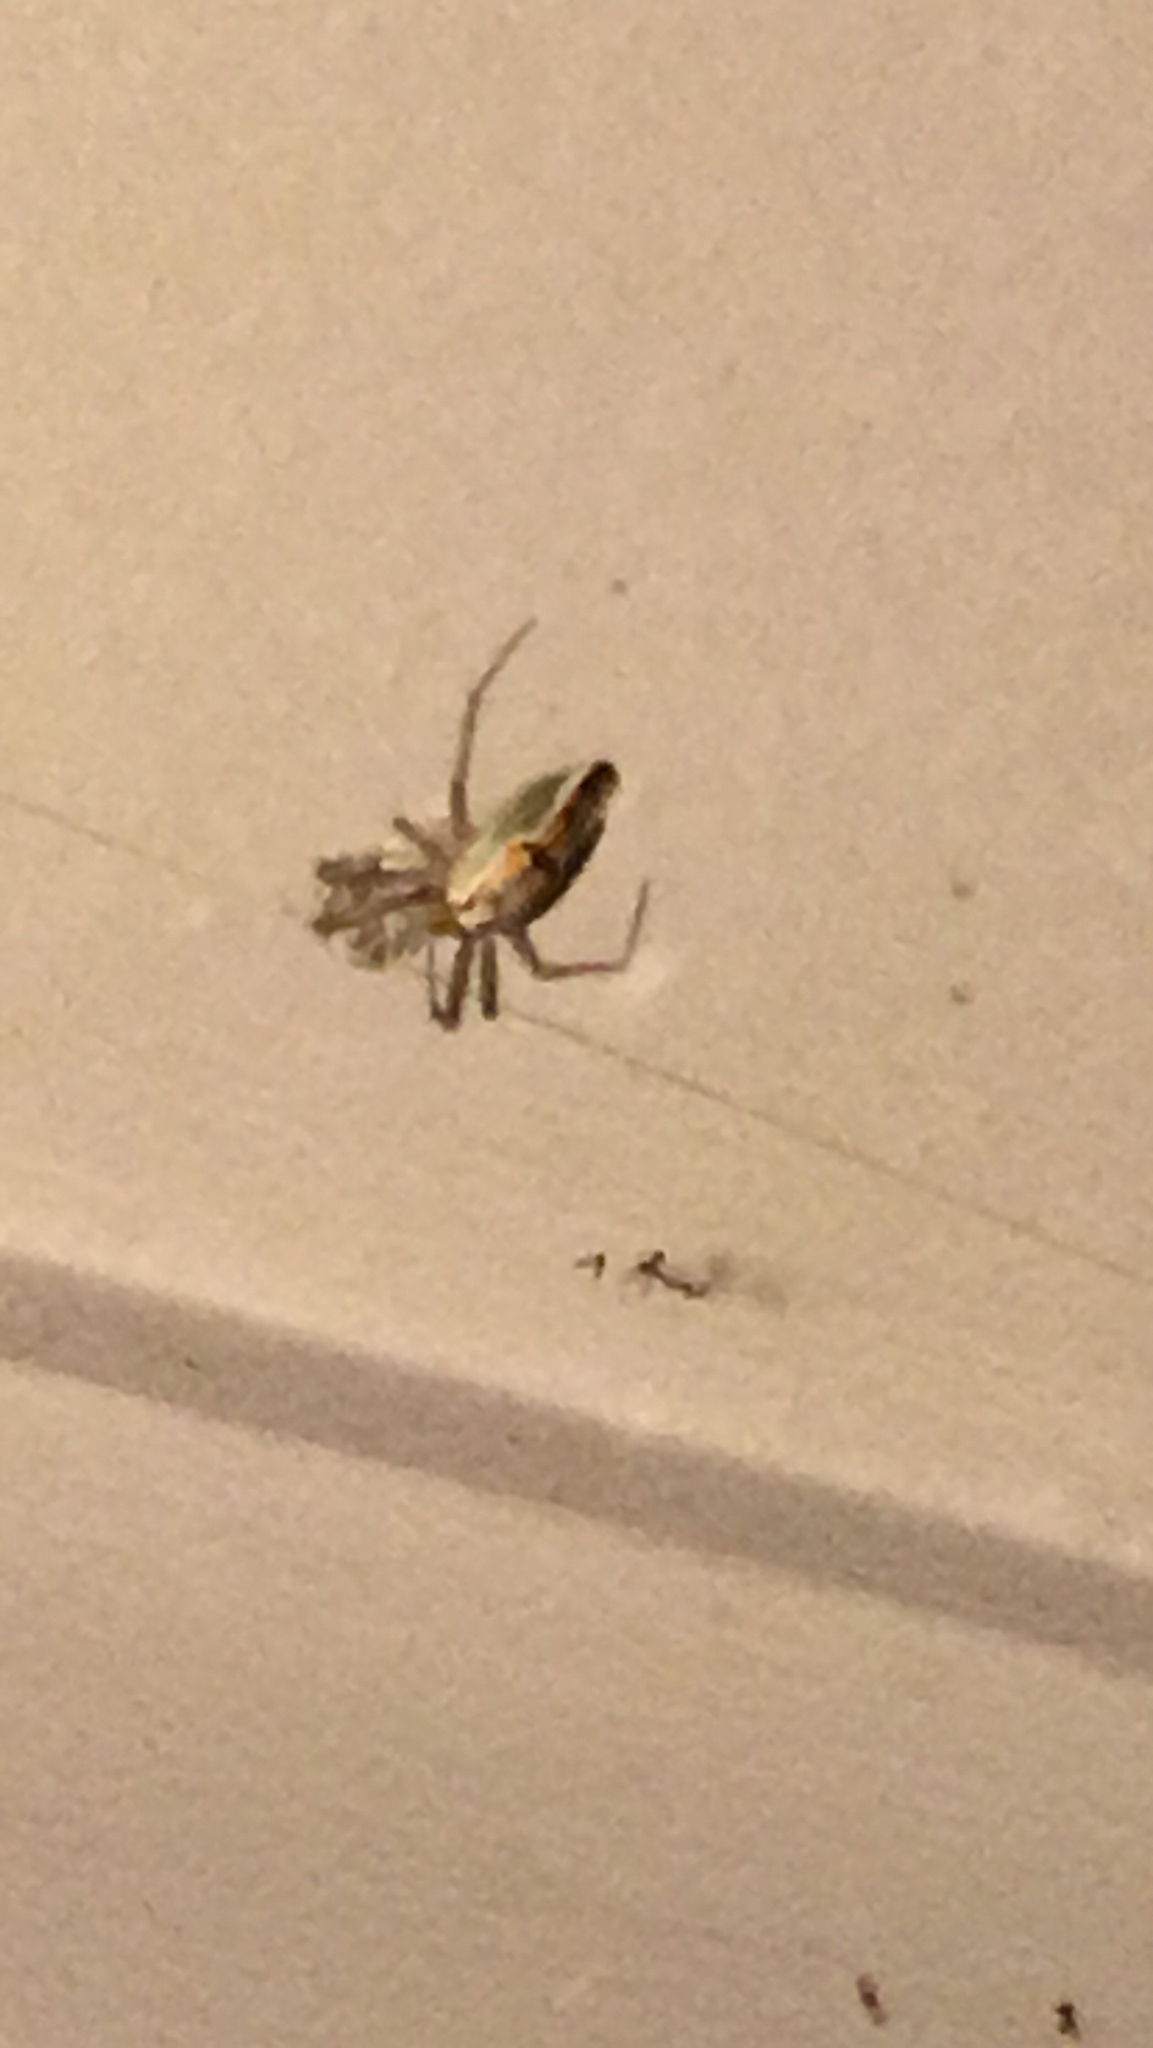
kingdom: Animalia
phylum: Arthropoda
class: Arachnida
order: Araneae
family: Araneidae
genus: Mecynogea
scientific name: Mecynogea lemniscata
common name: Orb weavers
